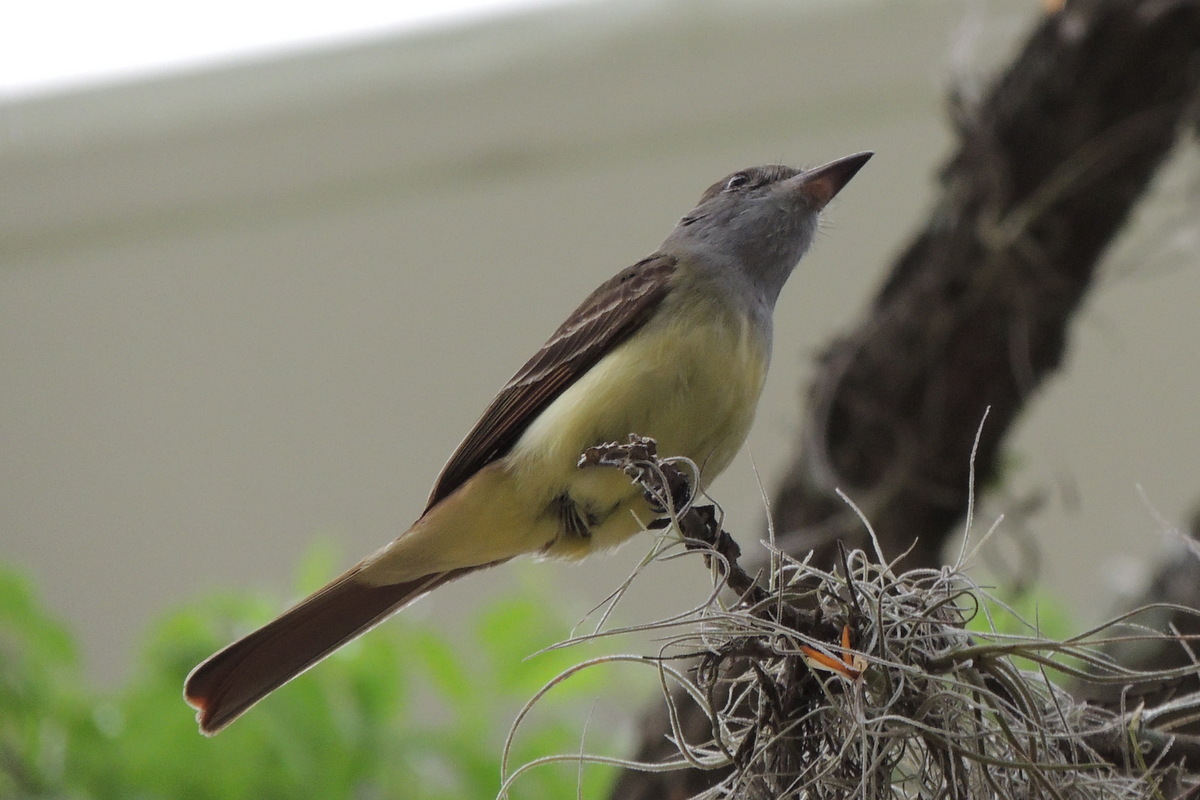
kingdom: Animalia
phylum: Chordata
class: Aves
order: Passeriformes
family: Tyrannidae
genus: Myiarchus
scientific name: Myiarchus crinitus
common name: Great crested flycatcher
